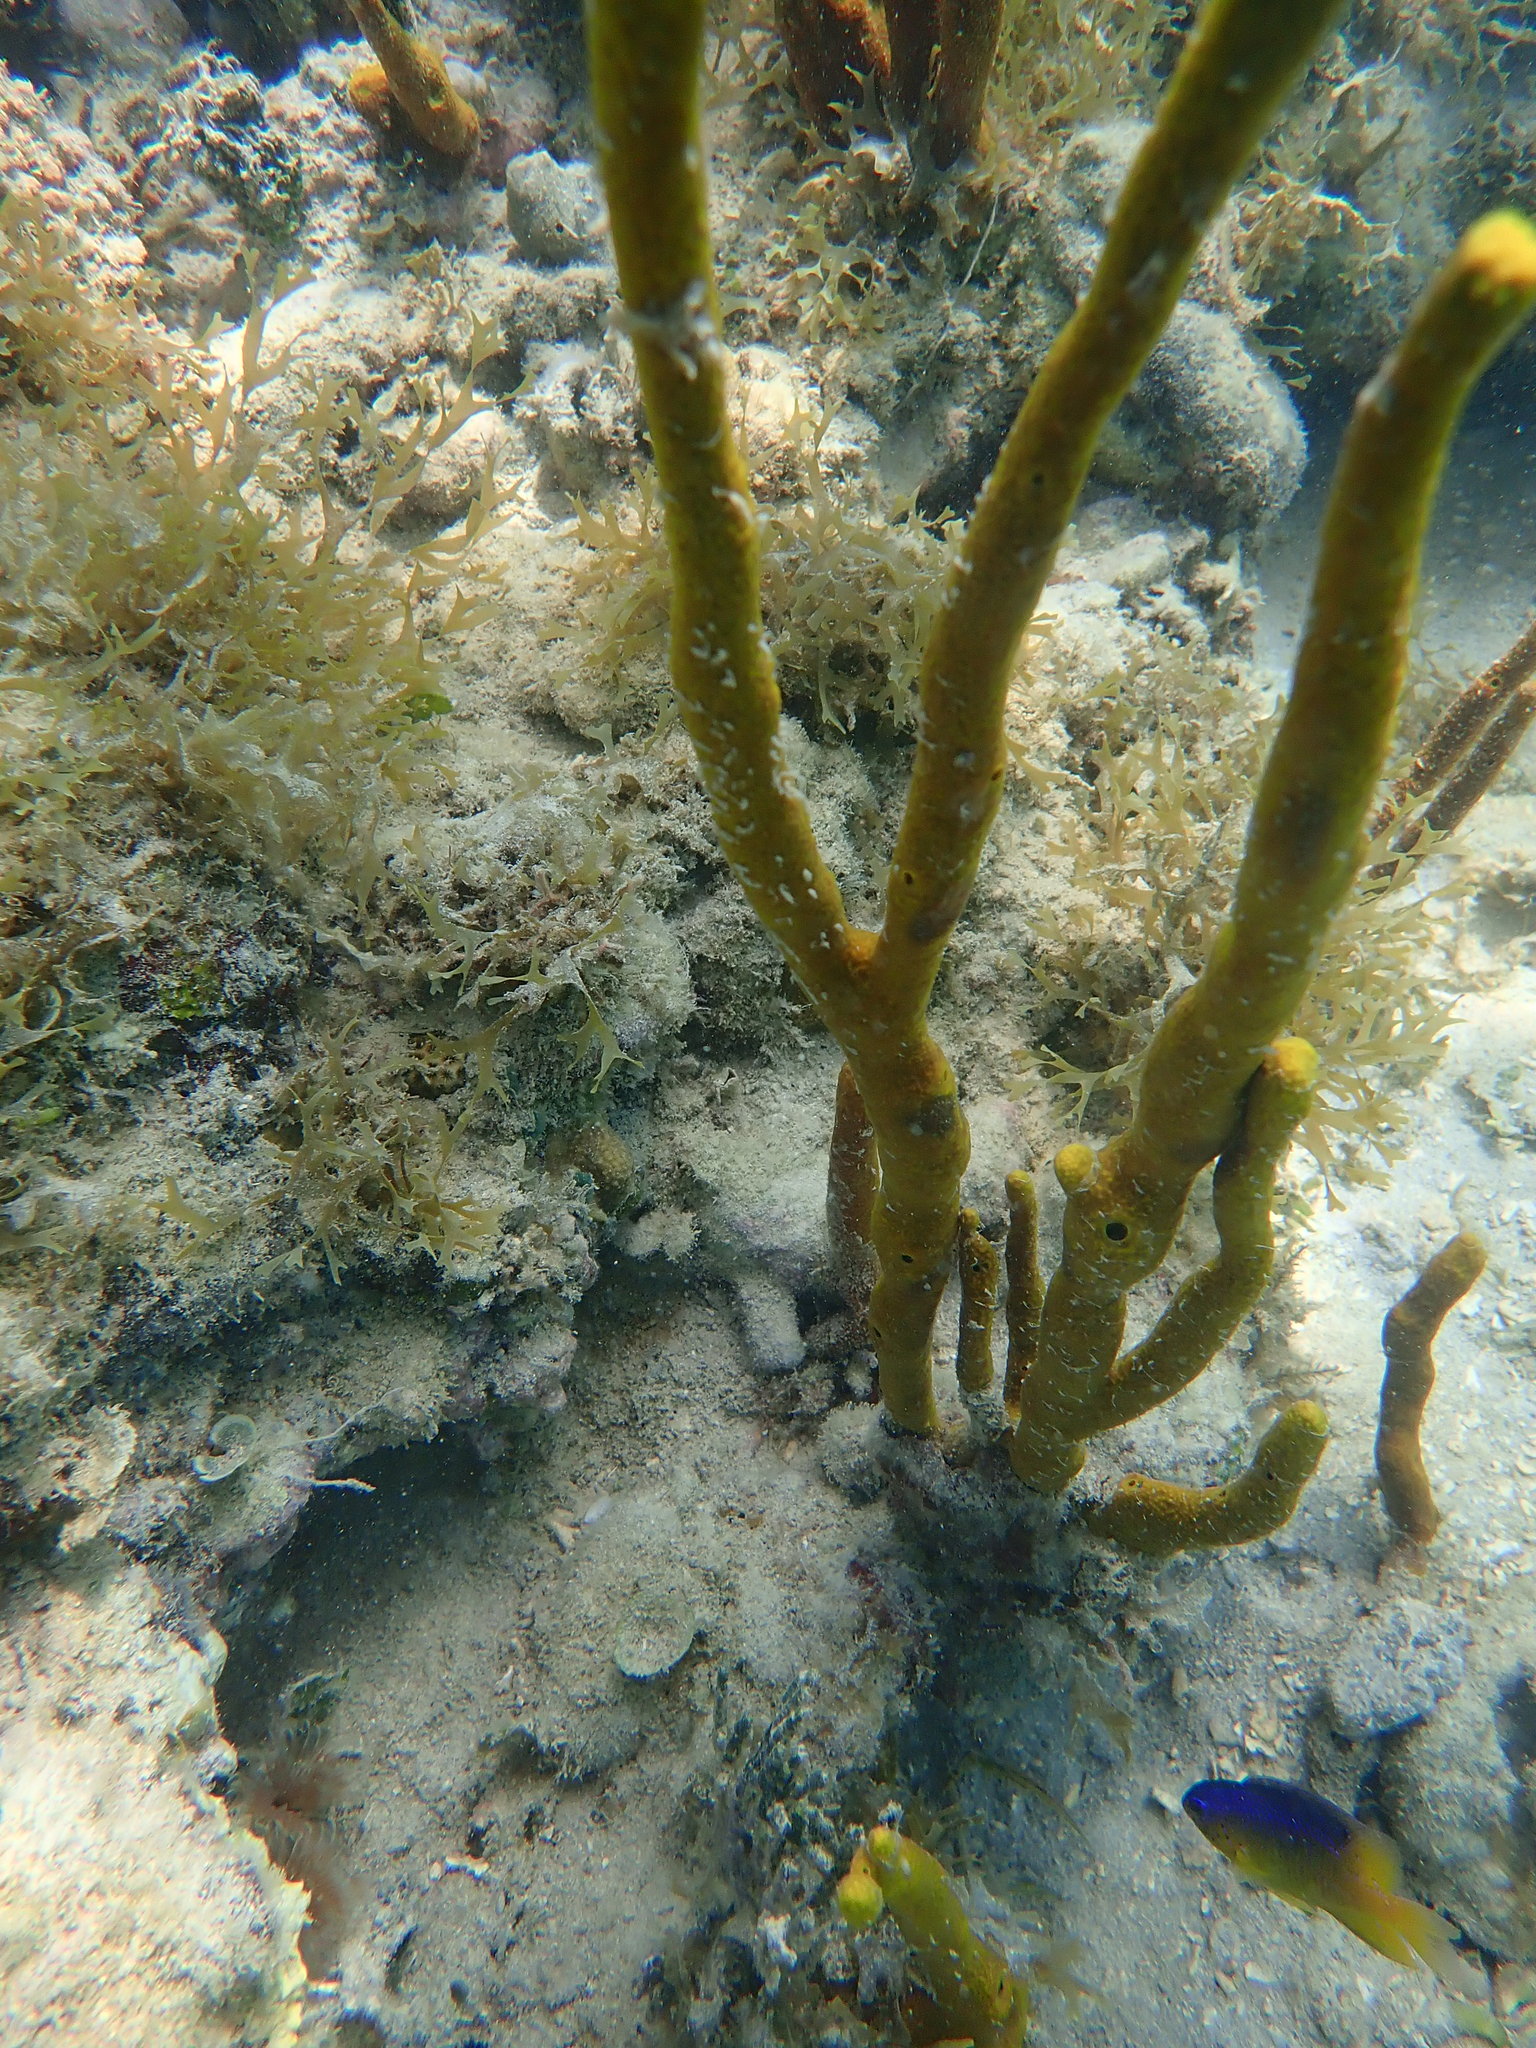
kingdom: Animalia
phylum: Porifera
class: Demospongiae
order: Verongiida
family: Aplysinidae
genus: Aplysina
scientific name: Aplysina fulva
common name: Scattered pore rope sponge
